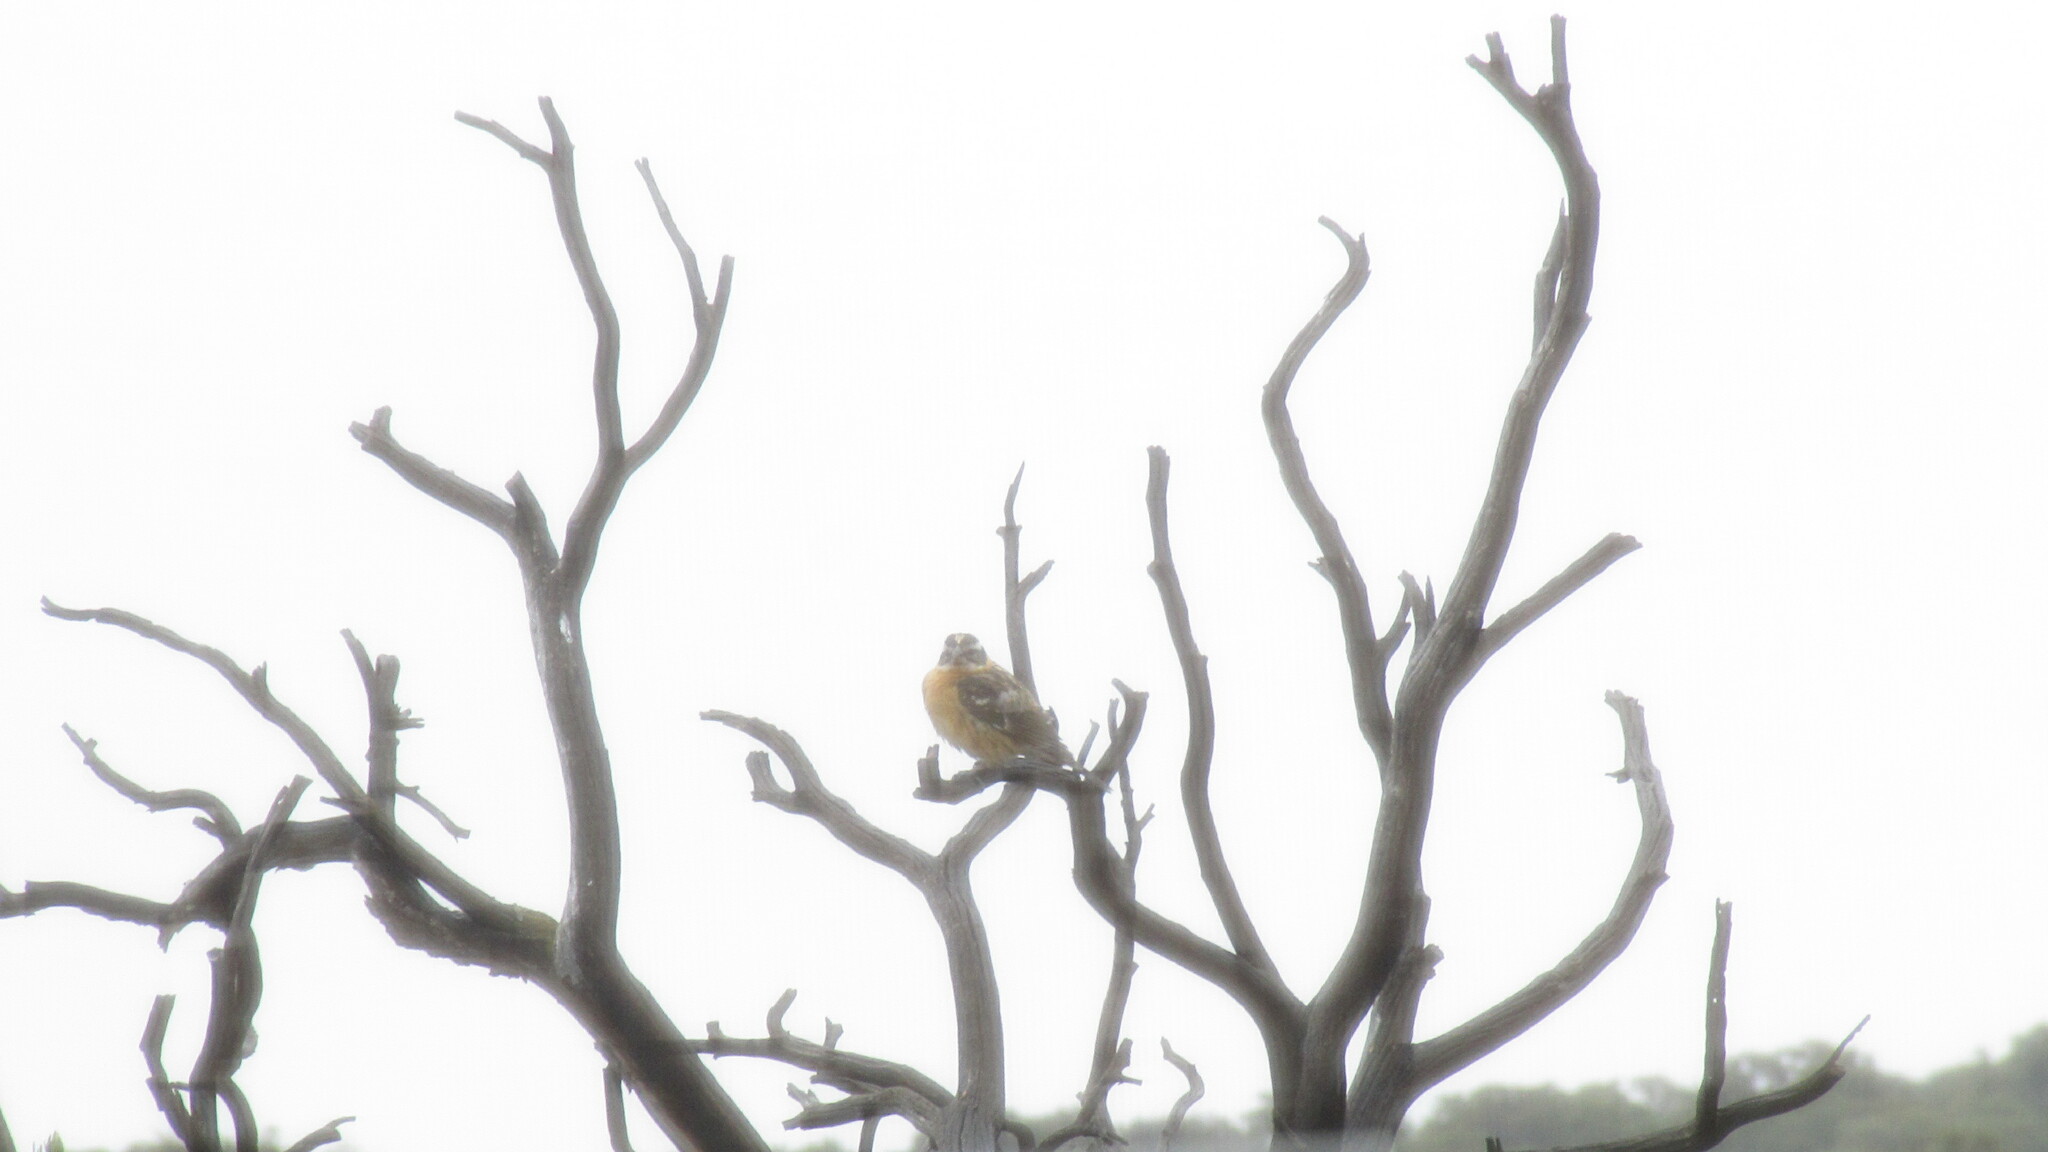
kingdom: Animalia
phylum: Chordata
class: Aves
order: Passeriformes
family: Cardinalidae
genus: Pheucticus
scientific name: Pheucticus melanocephalus
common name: Black-headed grosbeak
